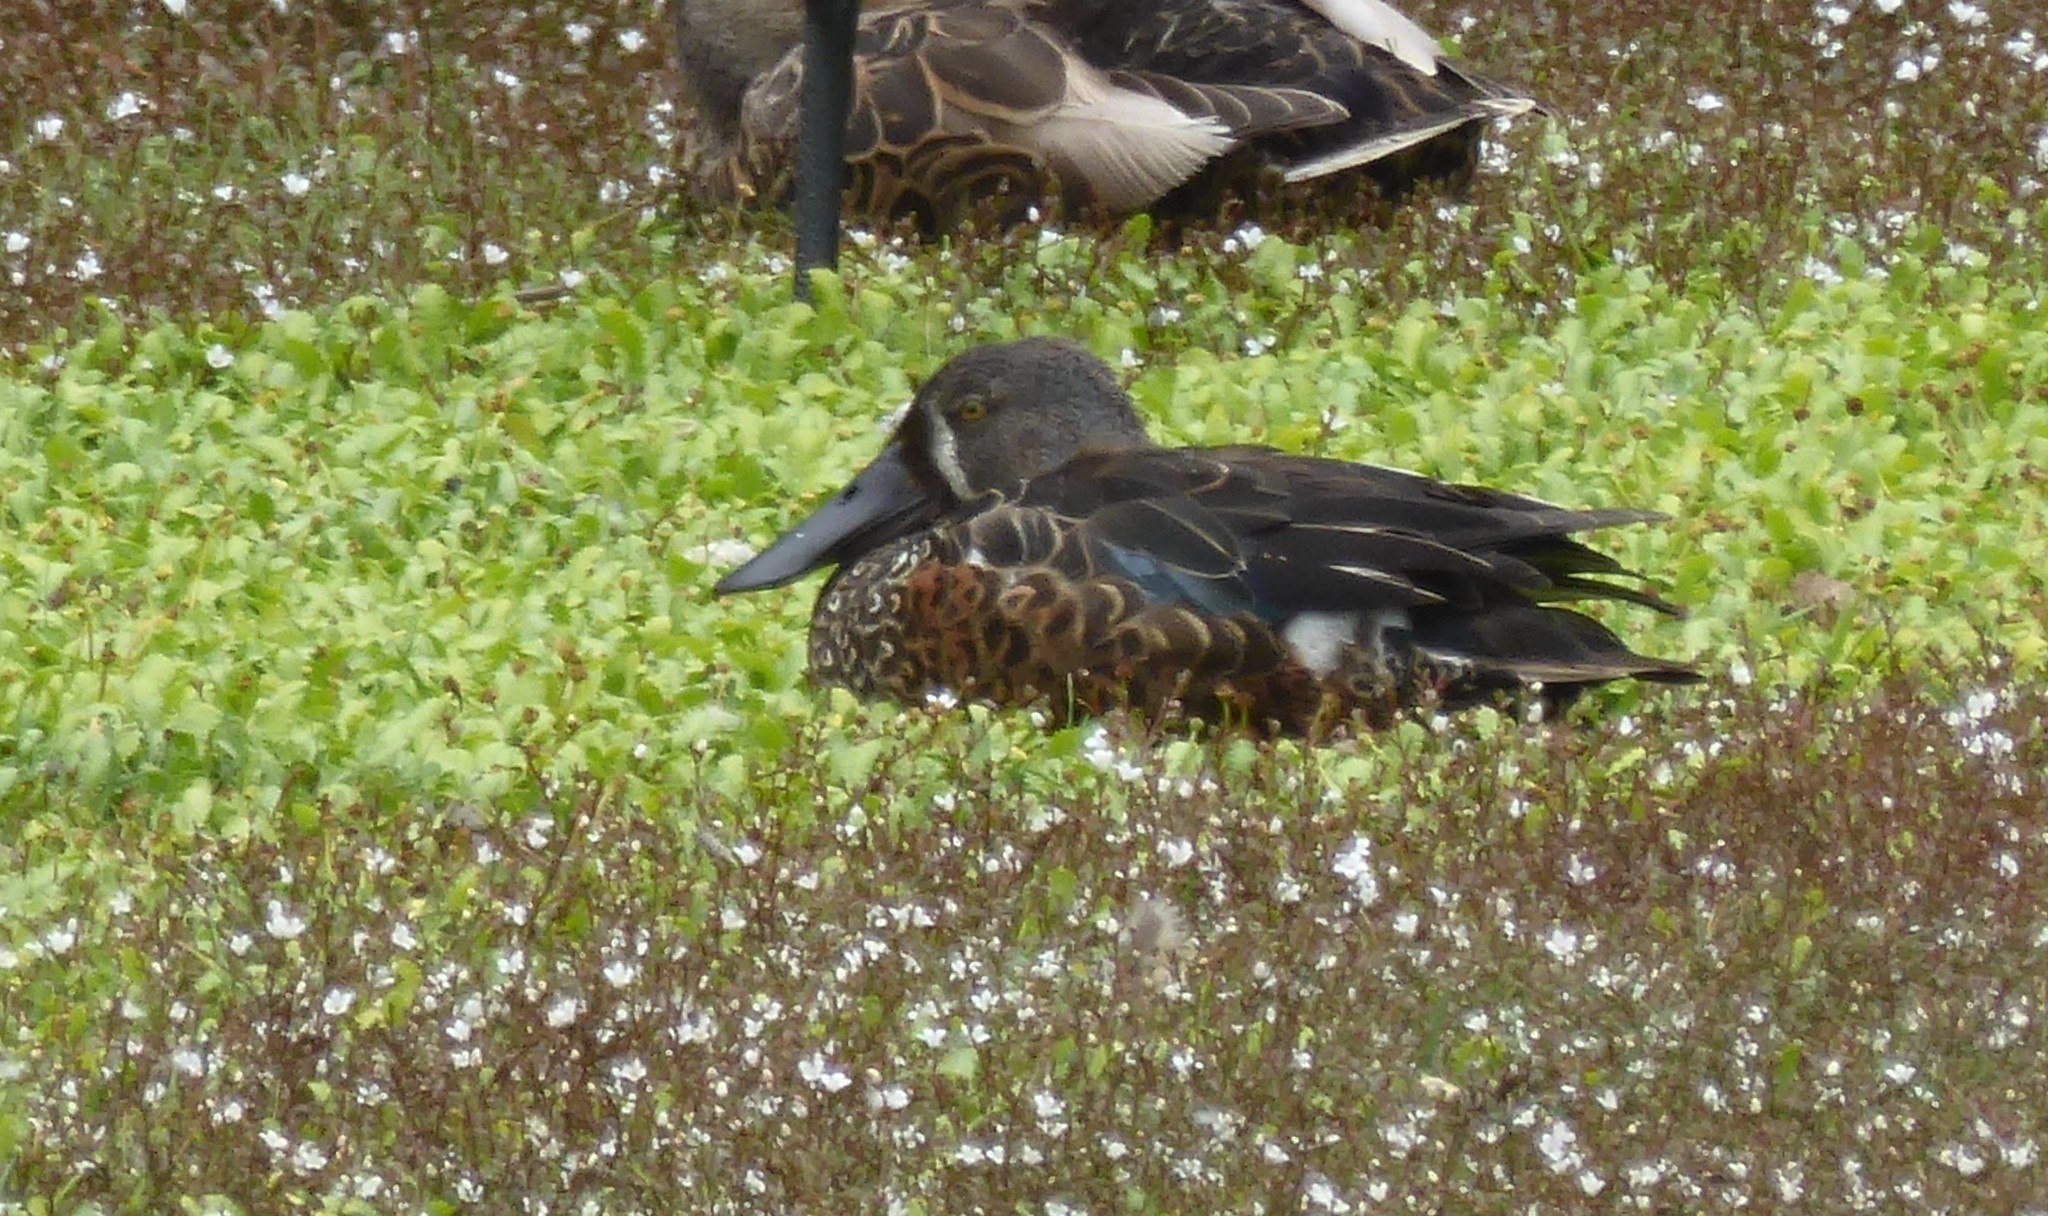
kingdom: Animalia
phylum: Chordata
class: Aves
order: Anseriformes
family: Anatidae
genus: Spatula
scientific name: Spatula rhynchotis
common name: Australian shoveler
